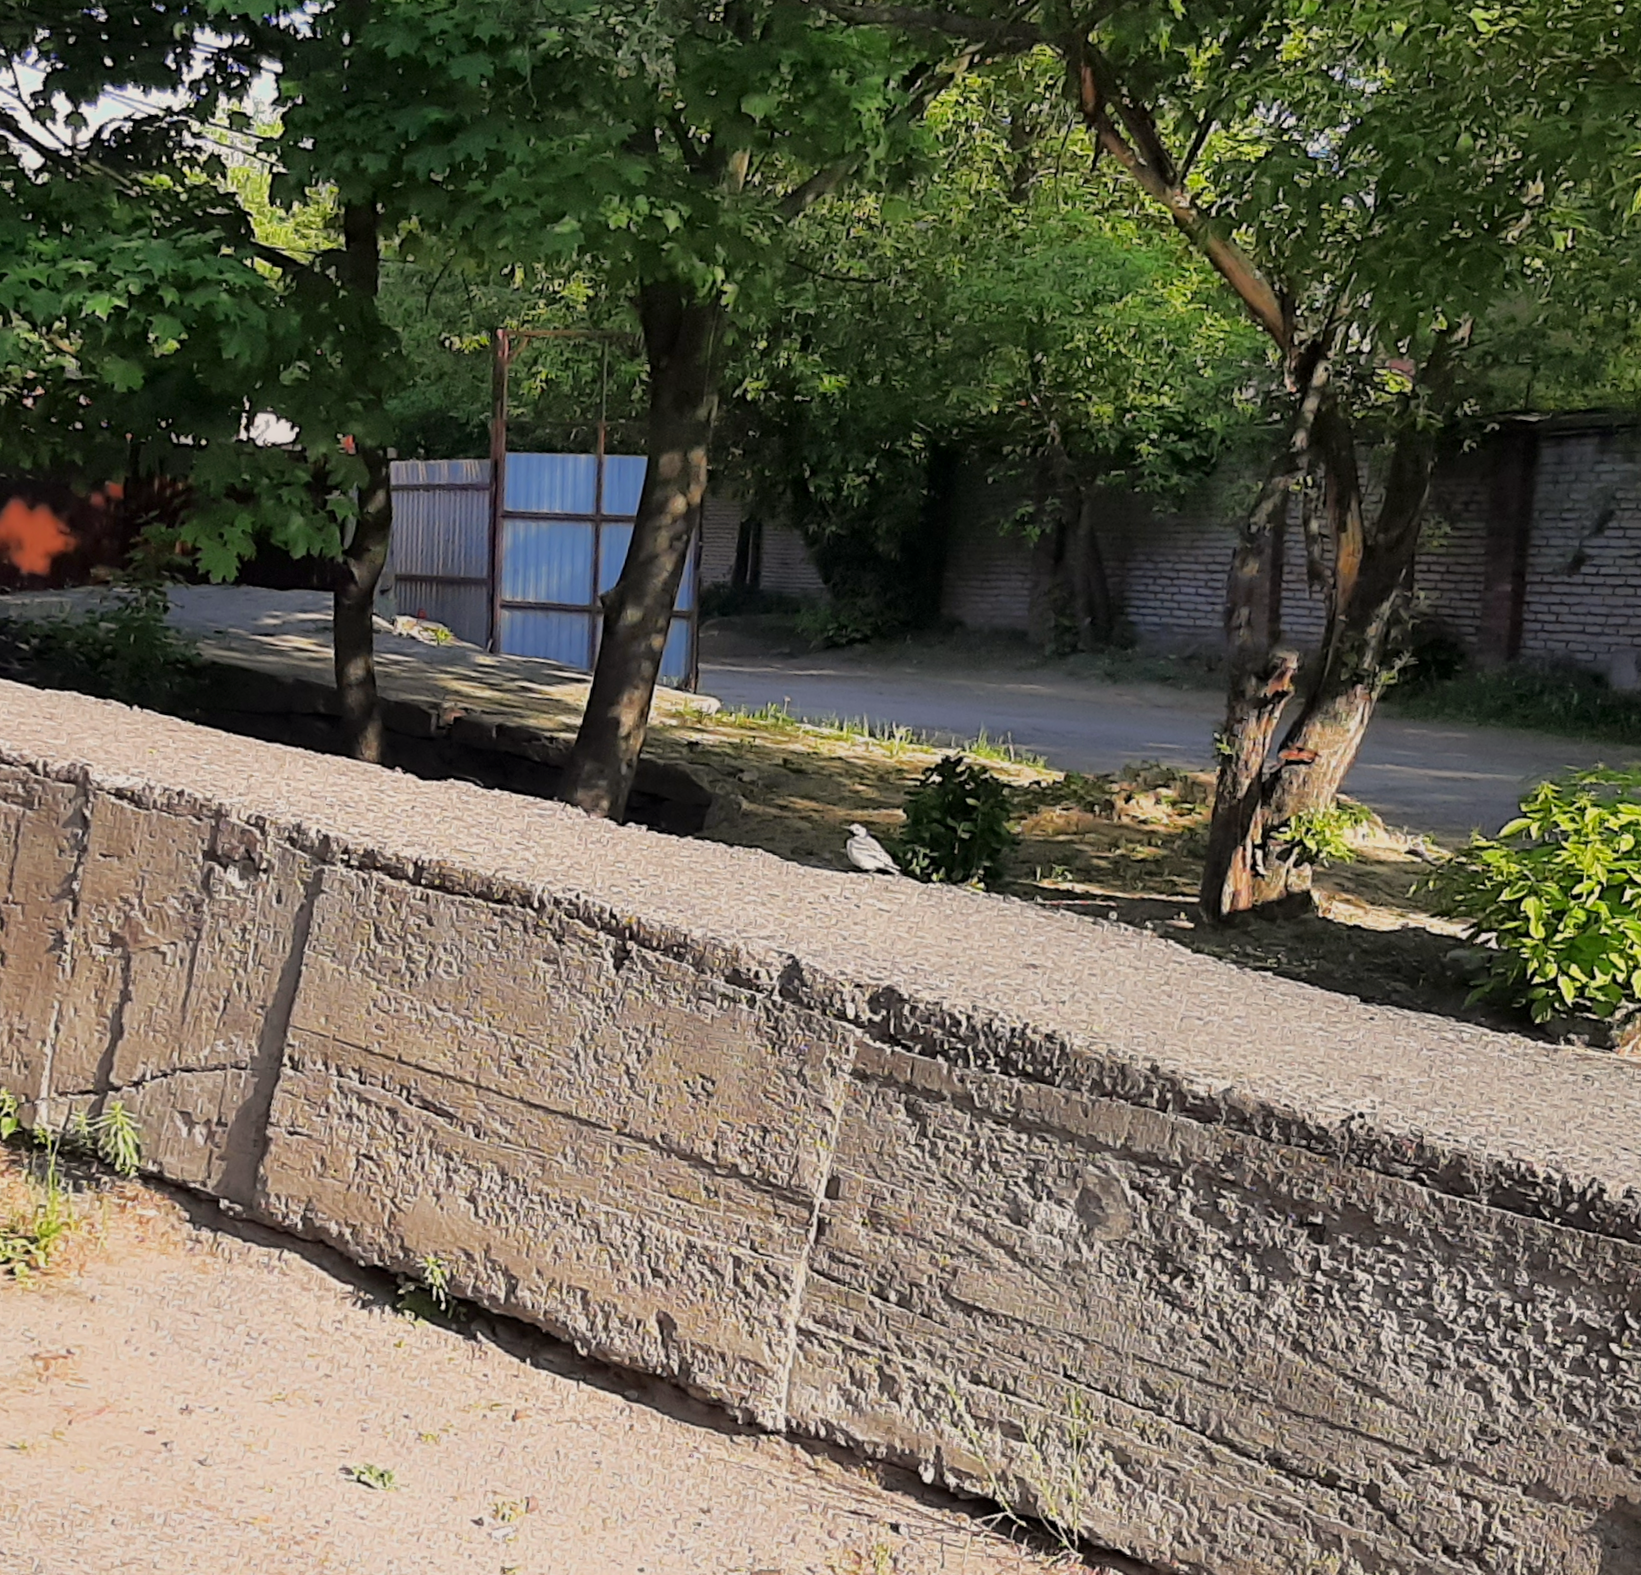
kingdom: Animalia
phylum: Chordata
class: Aves
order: Passeriformes
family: Motacillidae
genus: Motacilla
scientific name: Motacilla alba
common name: White wagtail
